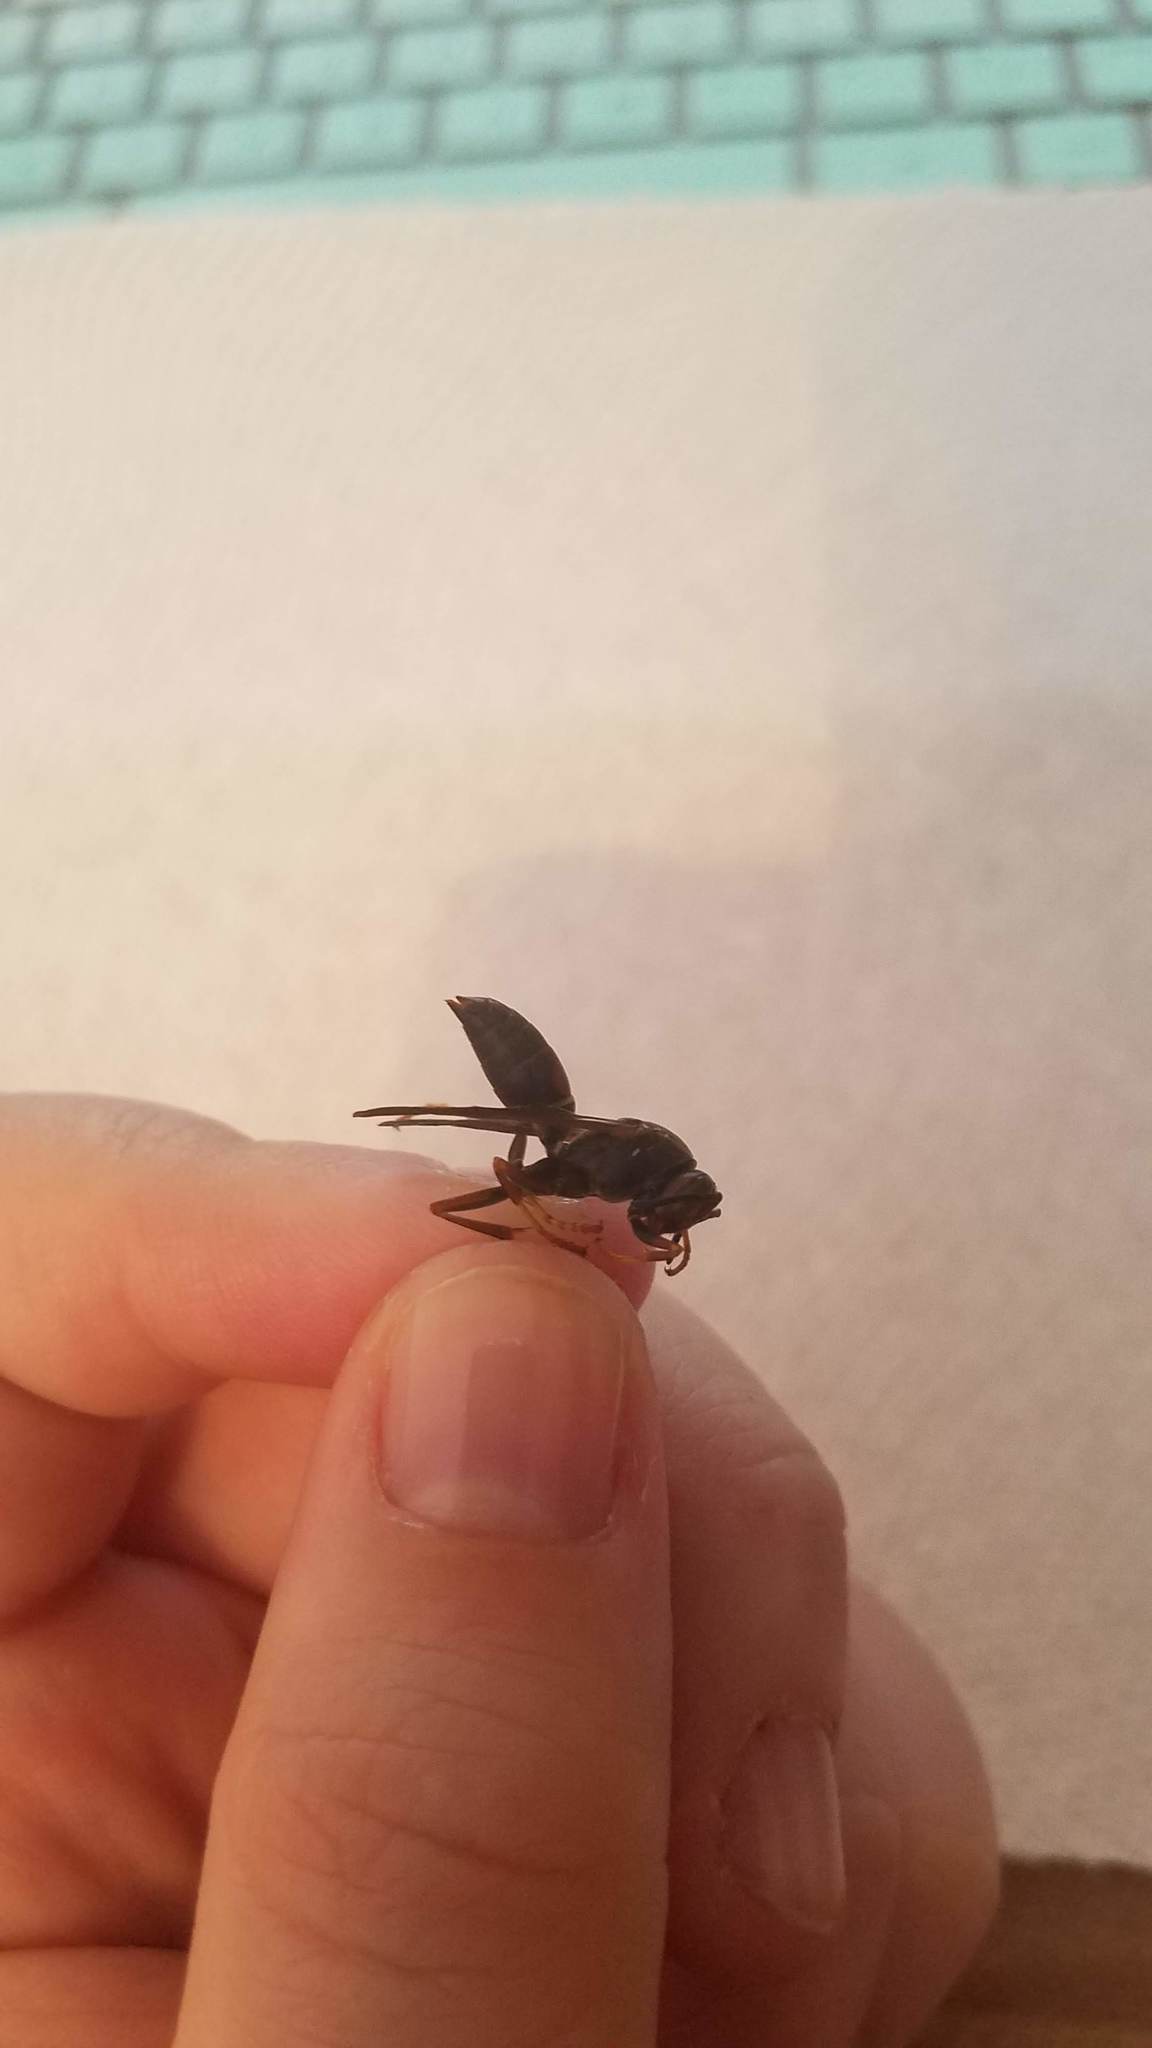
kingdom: Animalia
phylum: Arthropoda
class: Insecta
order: Hymenoptera
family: Eumenidae
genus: Polistes
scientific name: Polistes fuscatus
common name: Dark paper wasp
